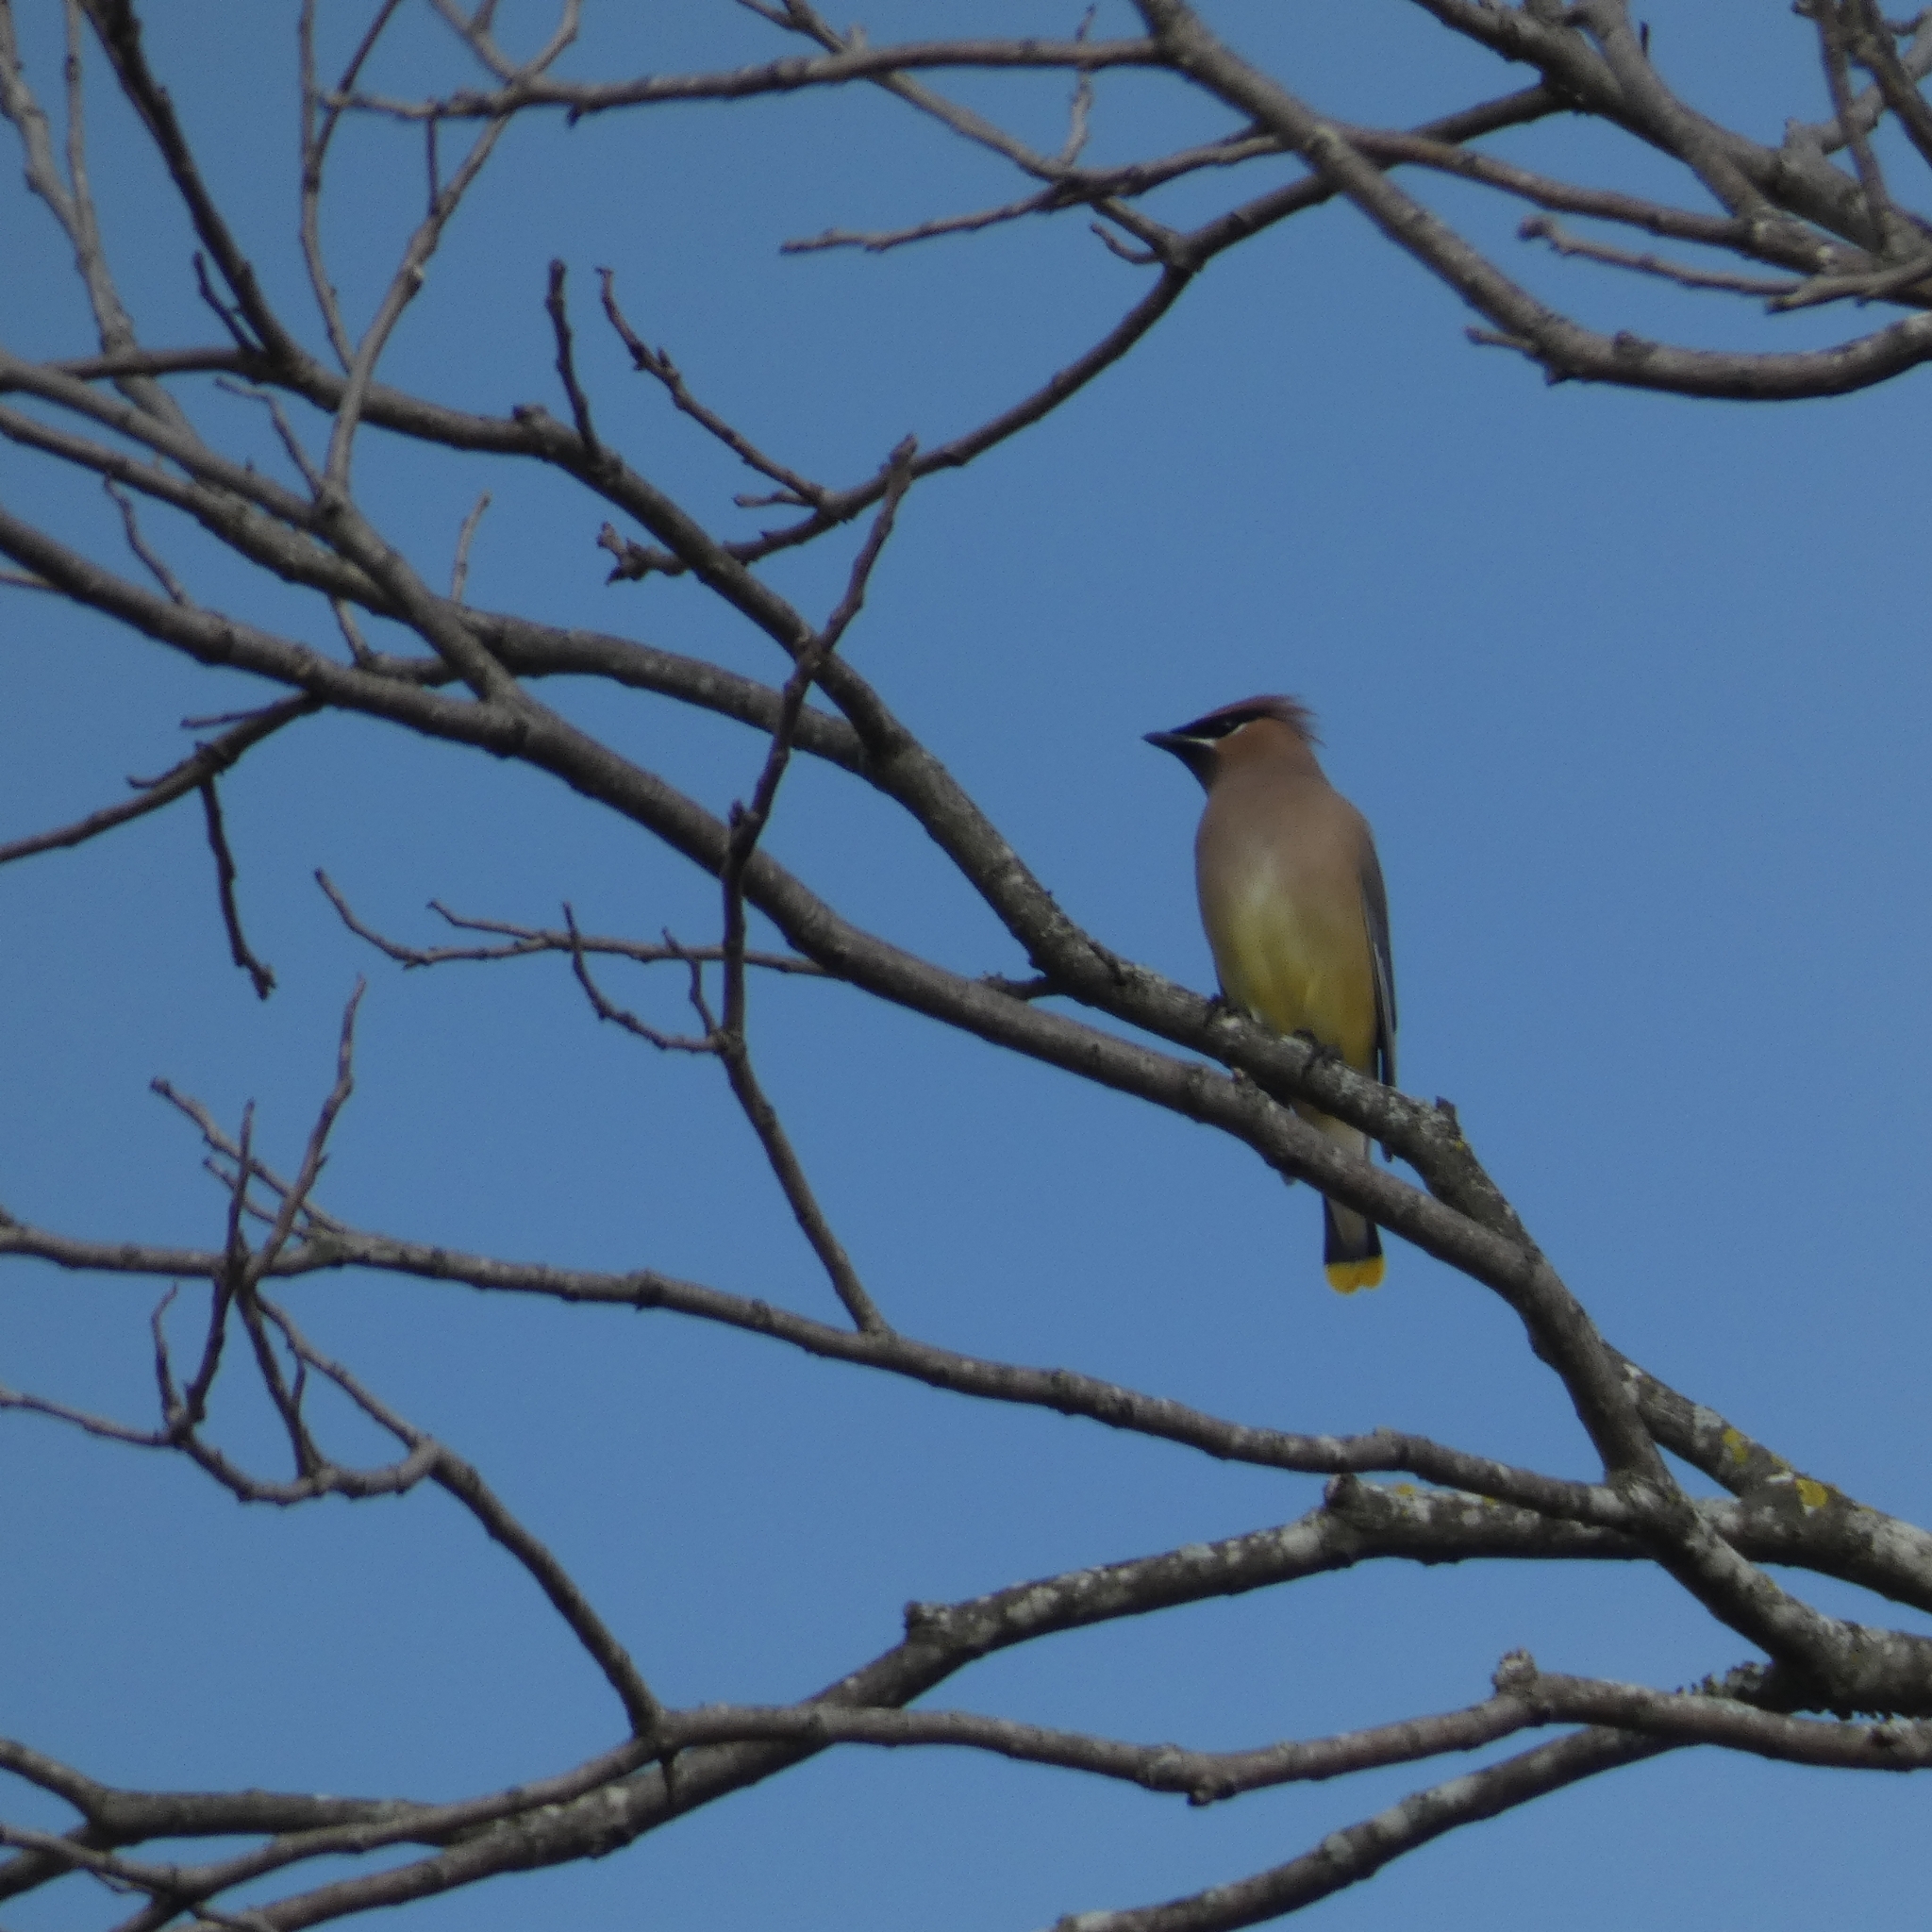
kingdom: Animalia
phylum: Chordata
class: Aves
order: Passeriformes
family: Bombycillidae
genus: Bombycilla
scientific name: Bombycilla cedrorum
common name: Cedar waxwing
